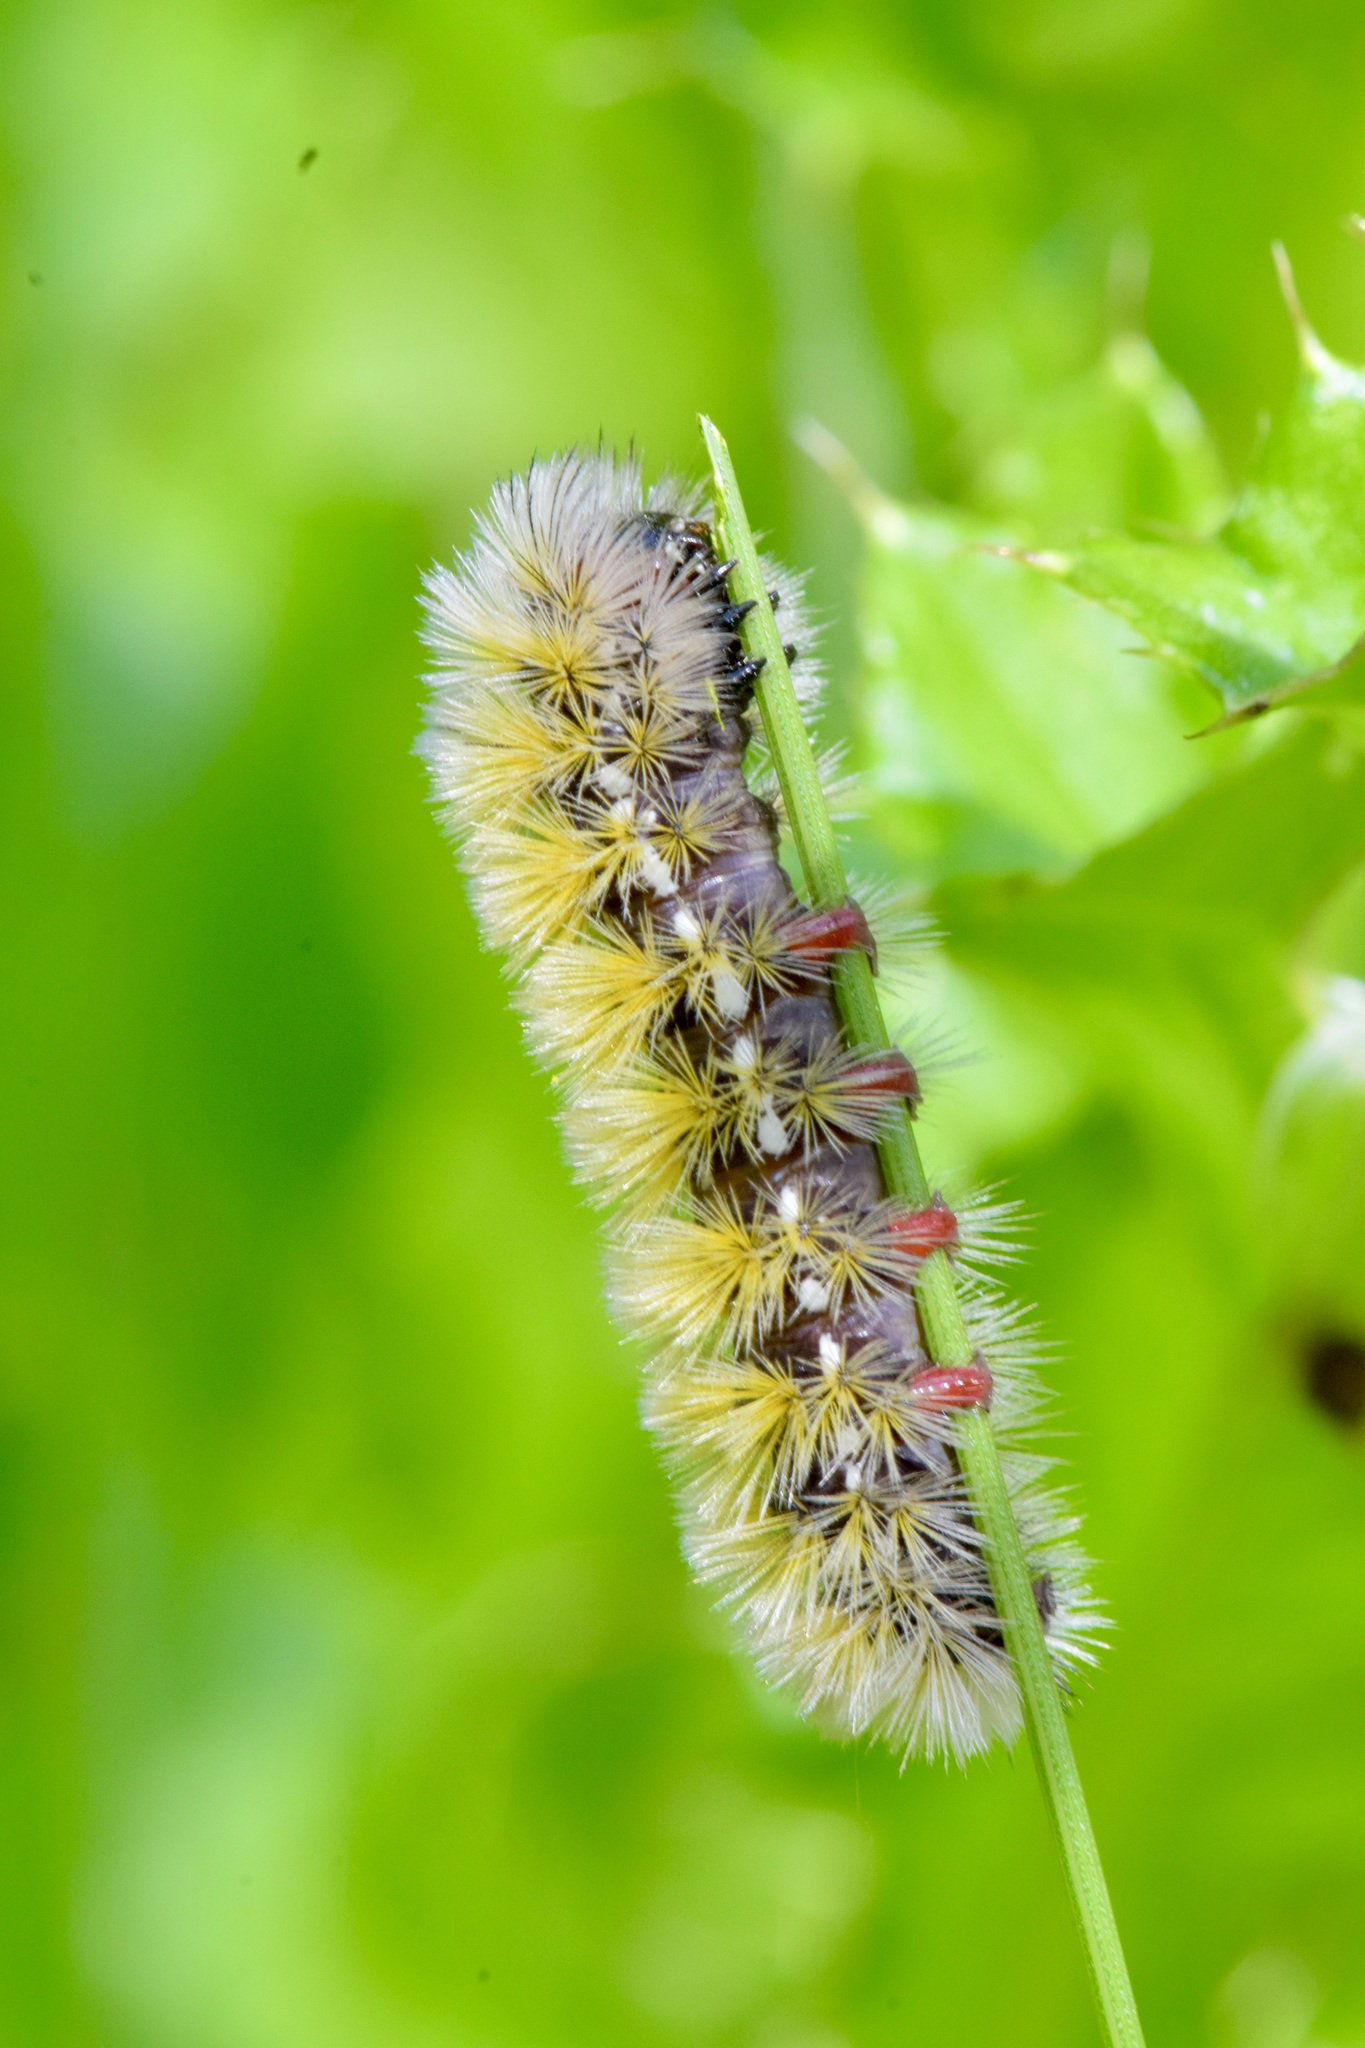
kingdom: Animalia
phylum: Arthropoda
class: Insecta
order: Lepidoptera
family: Erebidae
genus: Ctenucha
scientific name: Ctenucha virginica
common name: Virginia ctenucha moth
